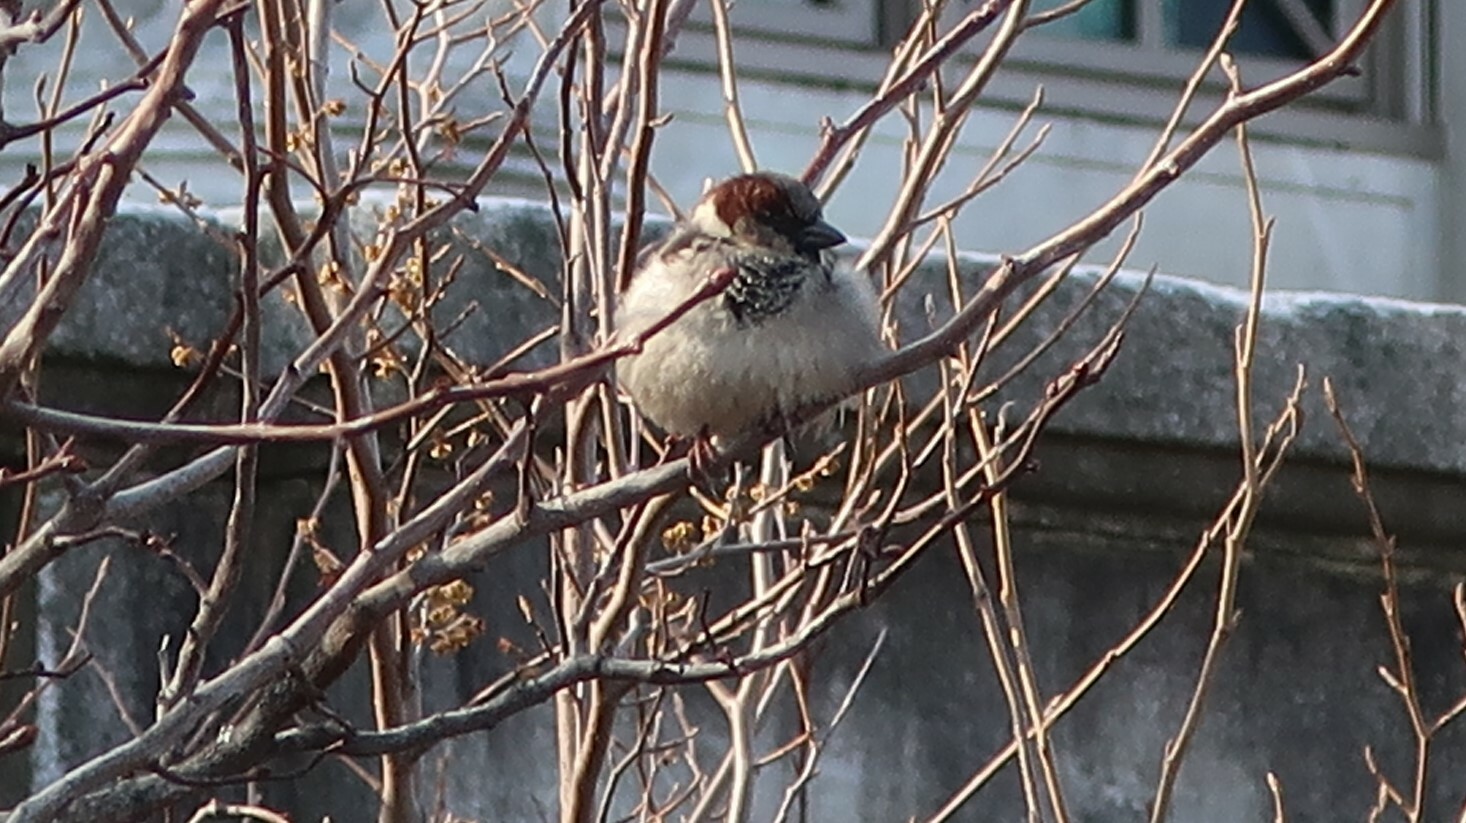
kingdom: Animalia
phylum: Chordata
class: Aves
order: Passeriformes
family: Passeridae
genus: Passer
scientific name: Passer domesticus
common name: House sparrow
